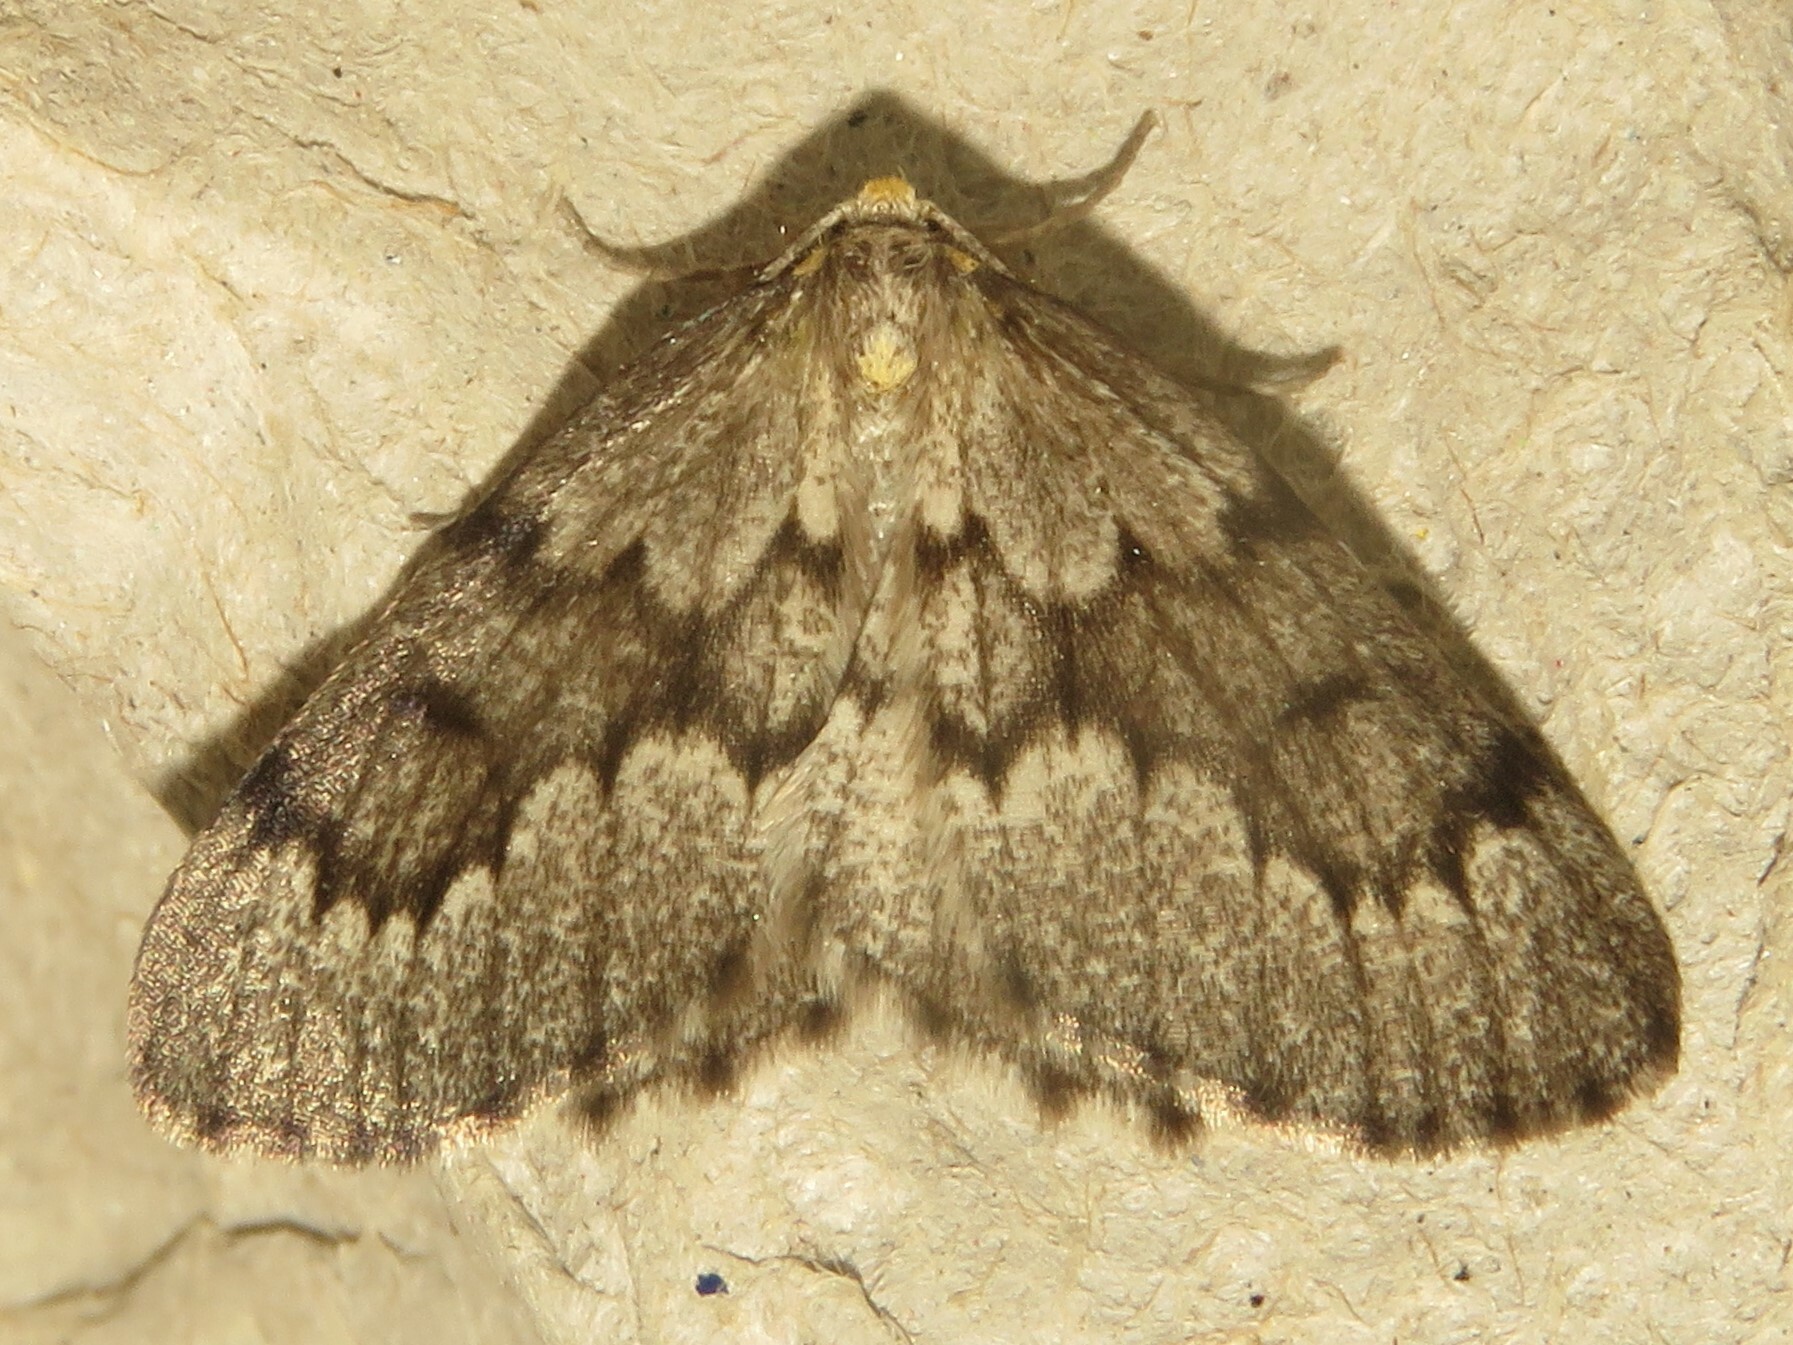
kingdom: Animalia
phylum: Arthropoda
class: Insecta
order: Lepidoptera
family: Geometridae
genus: Nepytia
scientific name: Nepytia canosaria
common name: False hemlock looper
